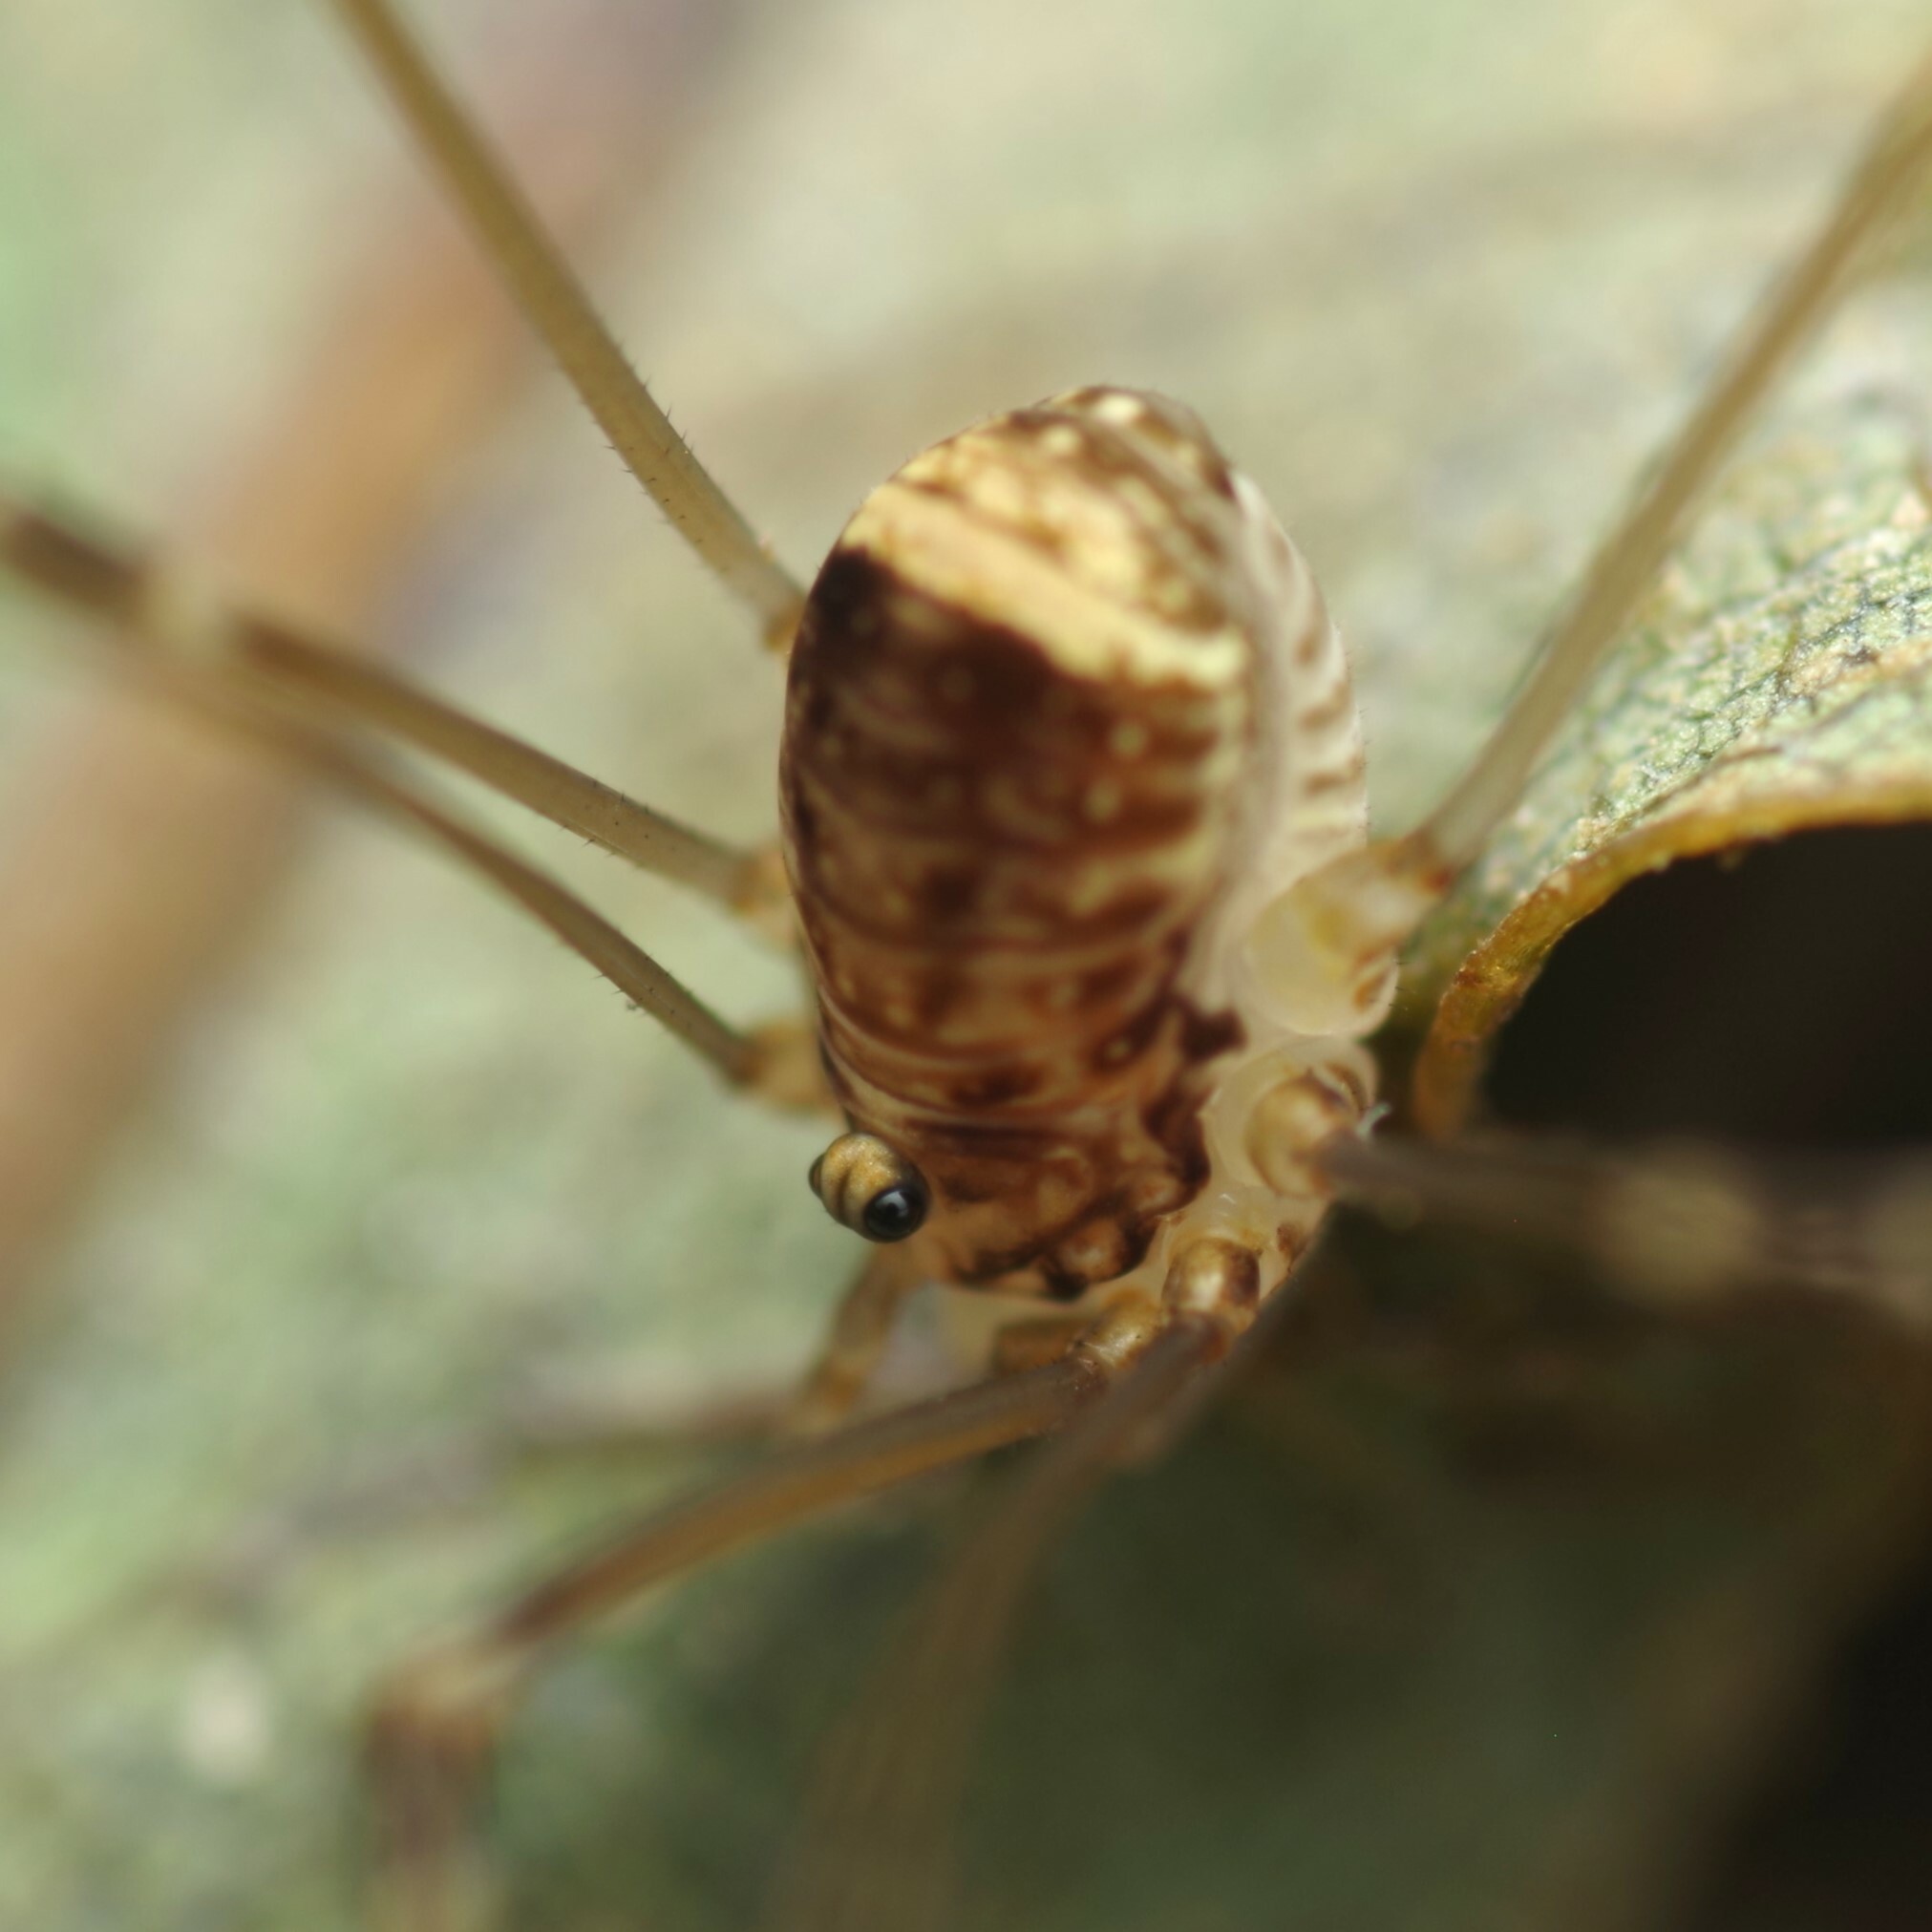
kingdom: Animalia
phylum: Arthropoda
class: Arachnida
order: Opiliones
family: Sclerosomatidae
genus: Leiobunum
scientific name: Leiobunum blackwalli
